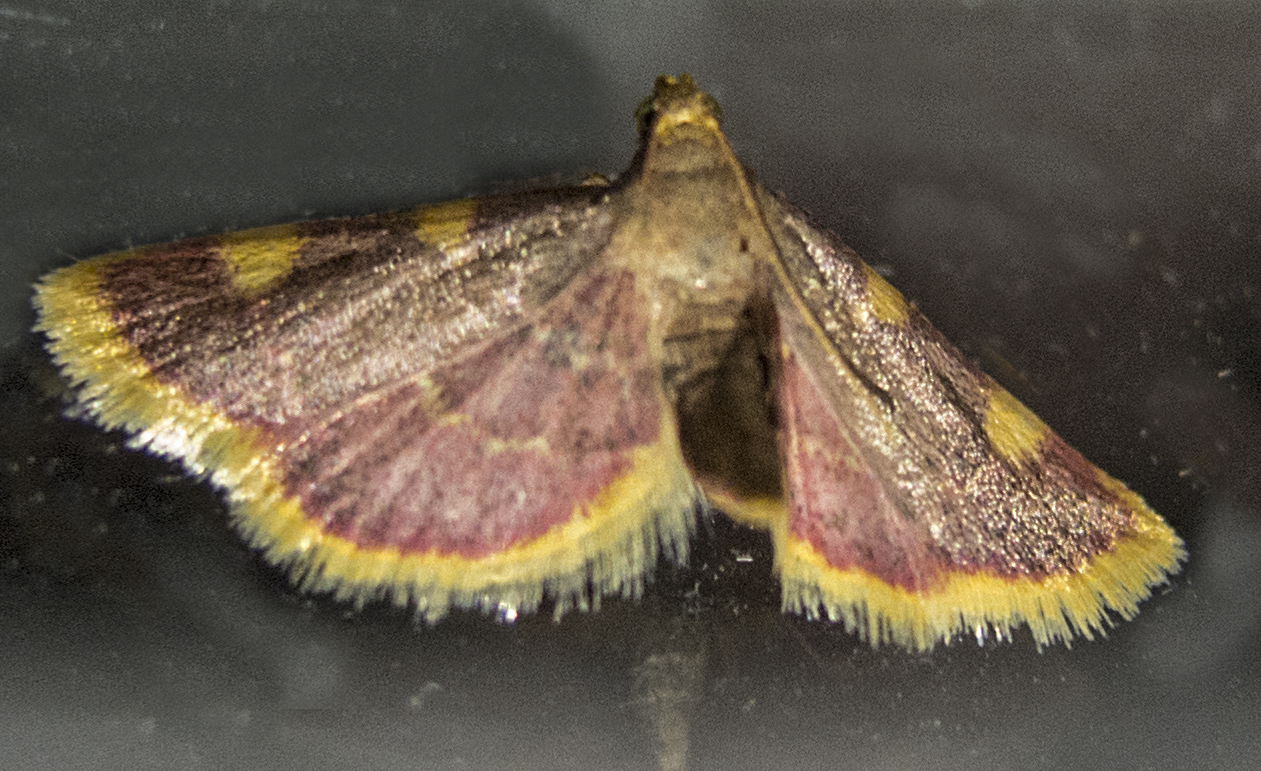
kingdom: Animalia
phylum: Arthropoda
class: Insecta
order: Lepidoptera
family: Pyralidae
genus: Hypsopygia
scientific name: Hypsopygia costalis
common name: Gold triangle
